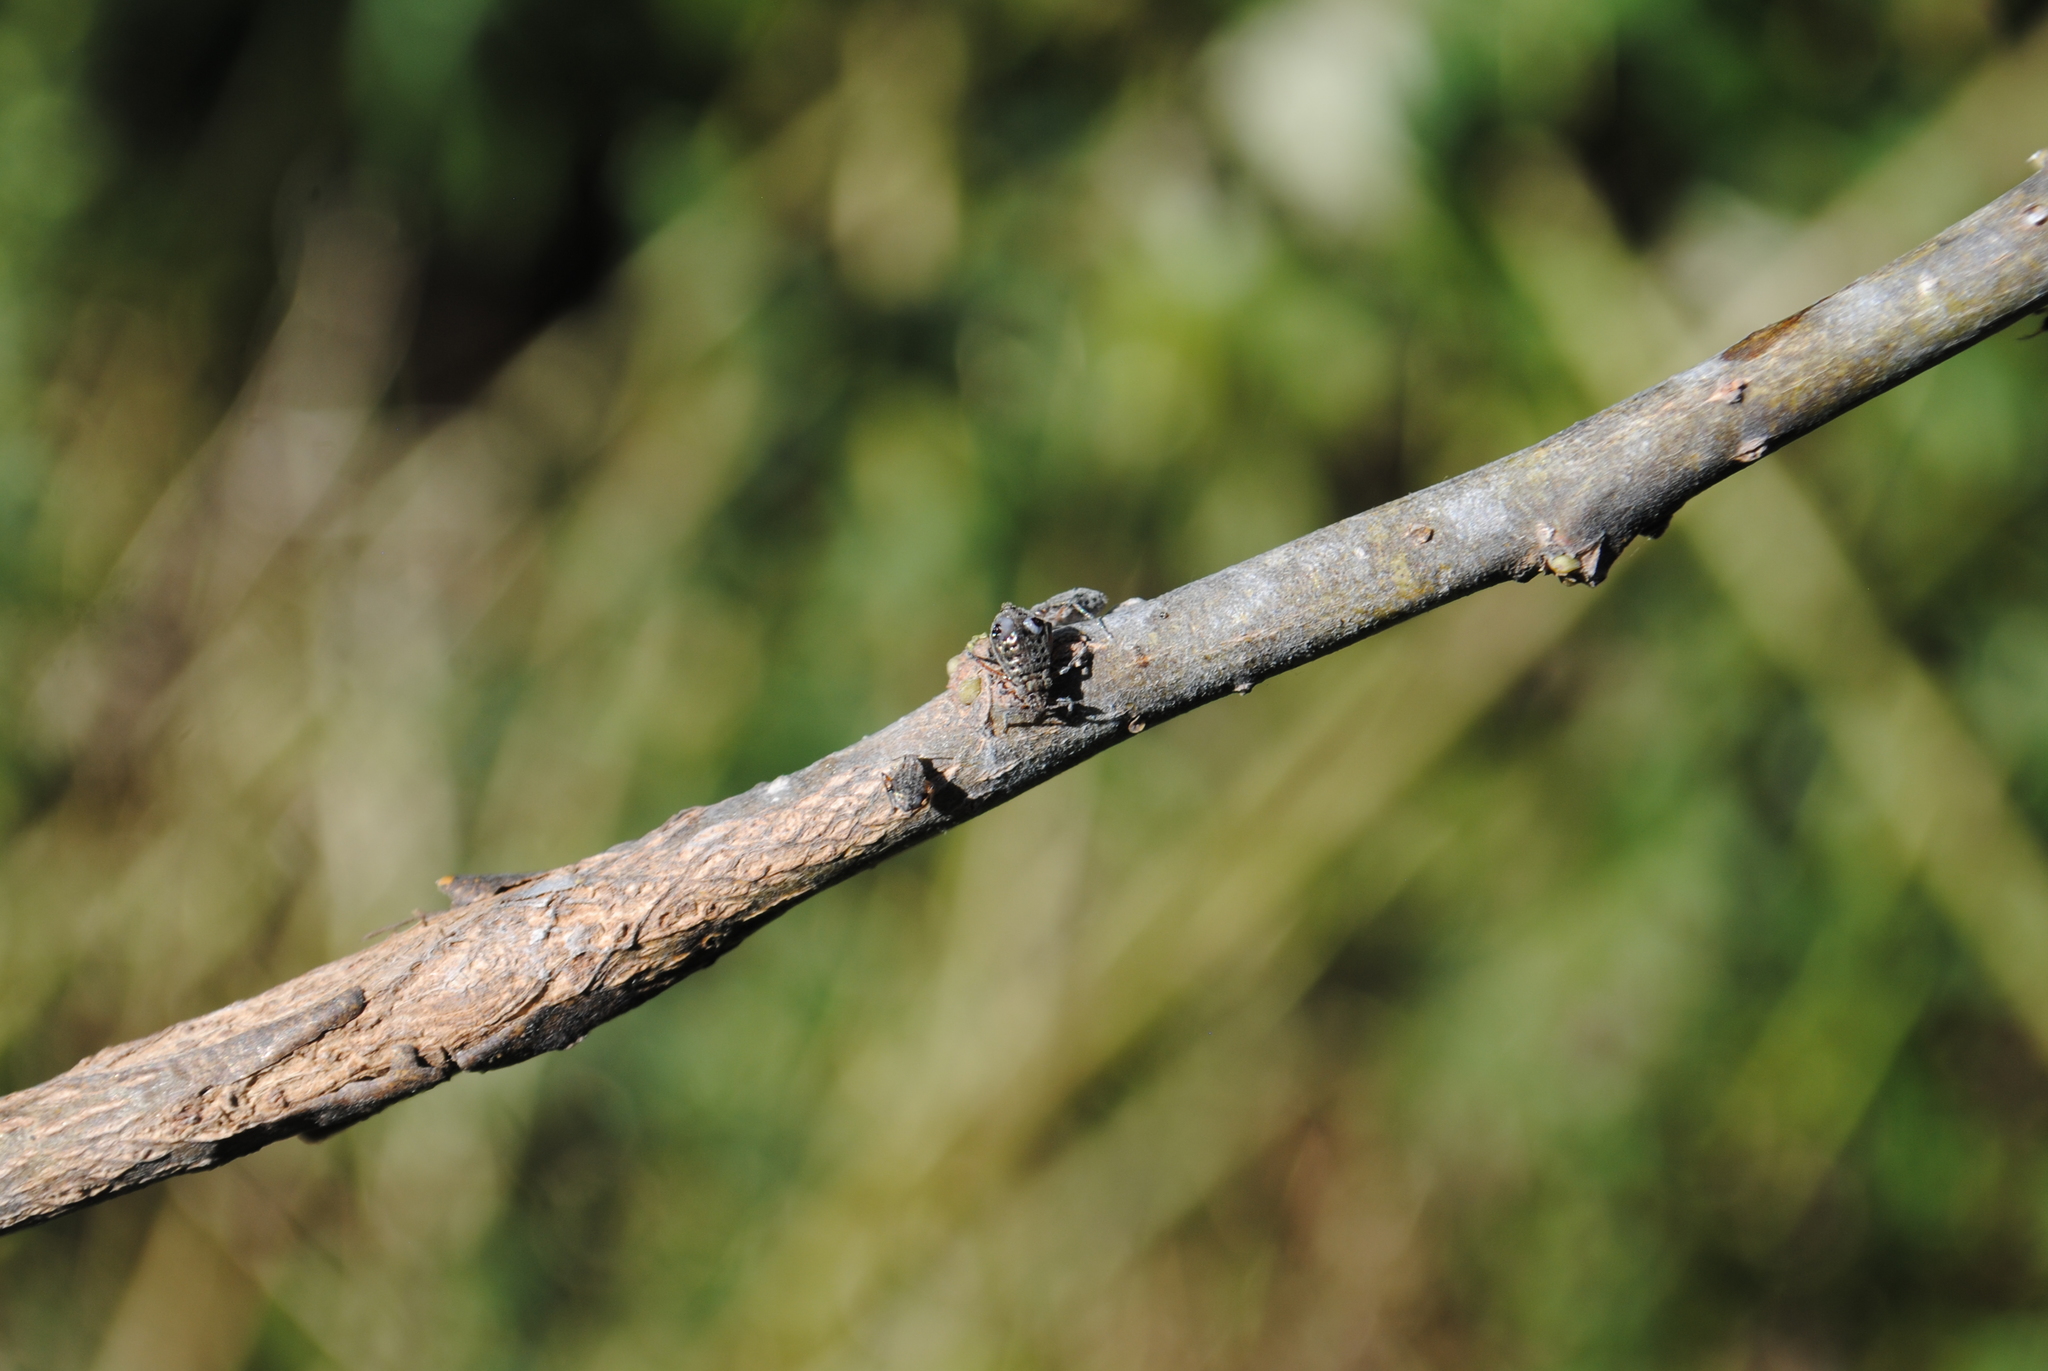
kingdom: Animalia
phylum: Arthropoda
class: Insecta
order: Hemiptera
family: Aphididae
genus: Tuberolachnus
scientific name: Tuberolachnus salignus
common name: Giant willow aphid
